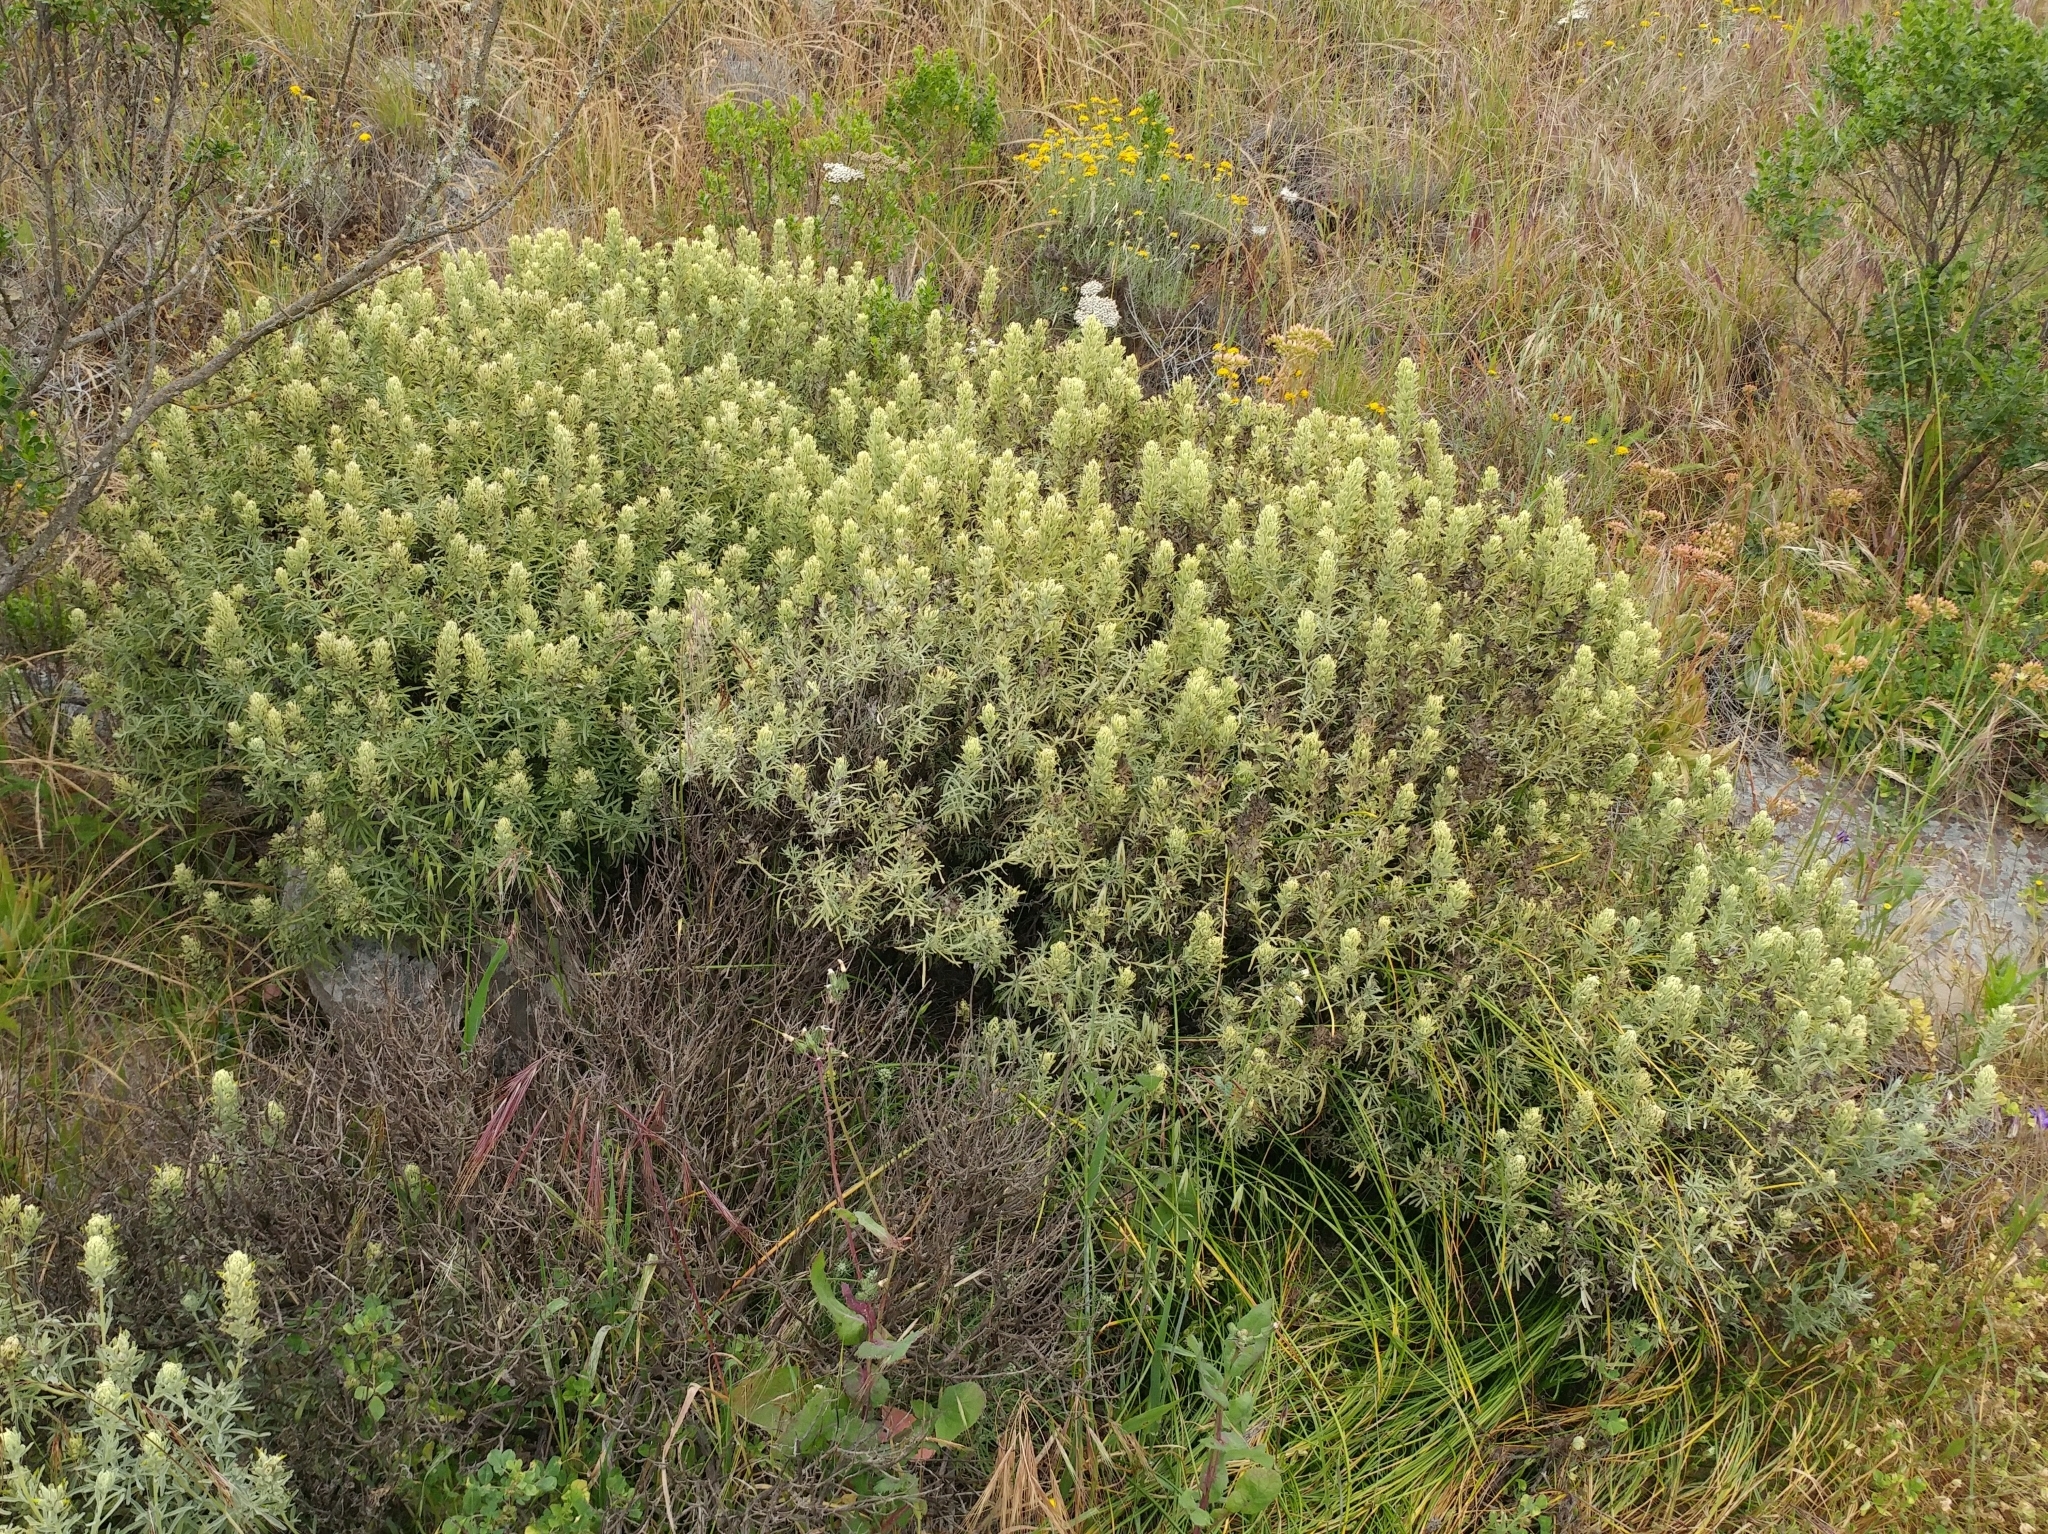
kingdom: Plantae
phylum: Tracheophyta
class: Magnoliopsida
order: Lamiales
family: Orobanchaceae
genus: Castilleja
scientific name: Castilleja grisea
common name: San clemente island indian paintbrush
